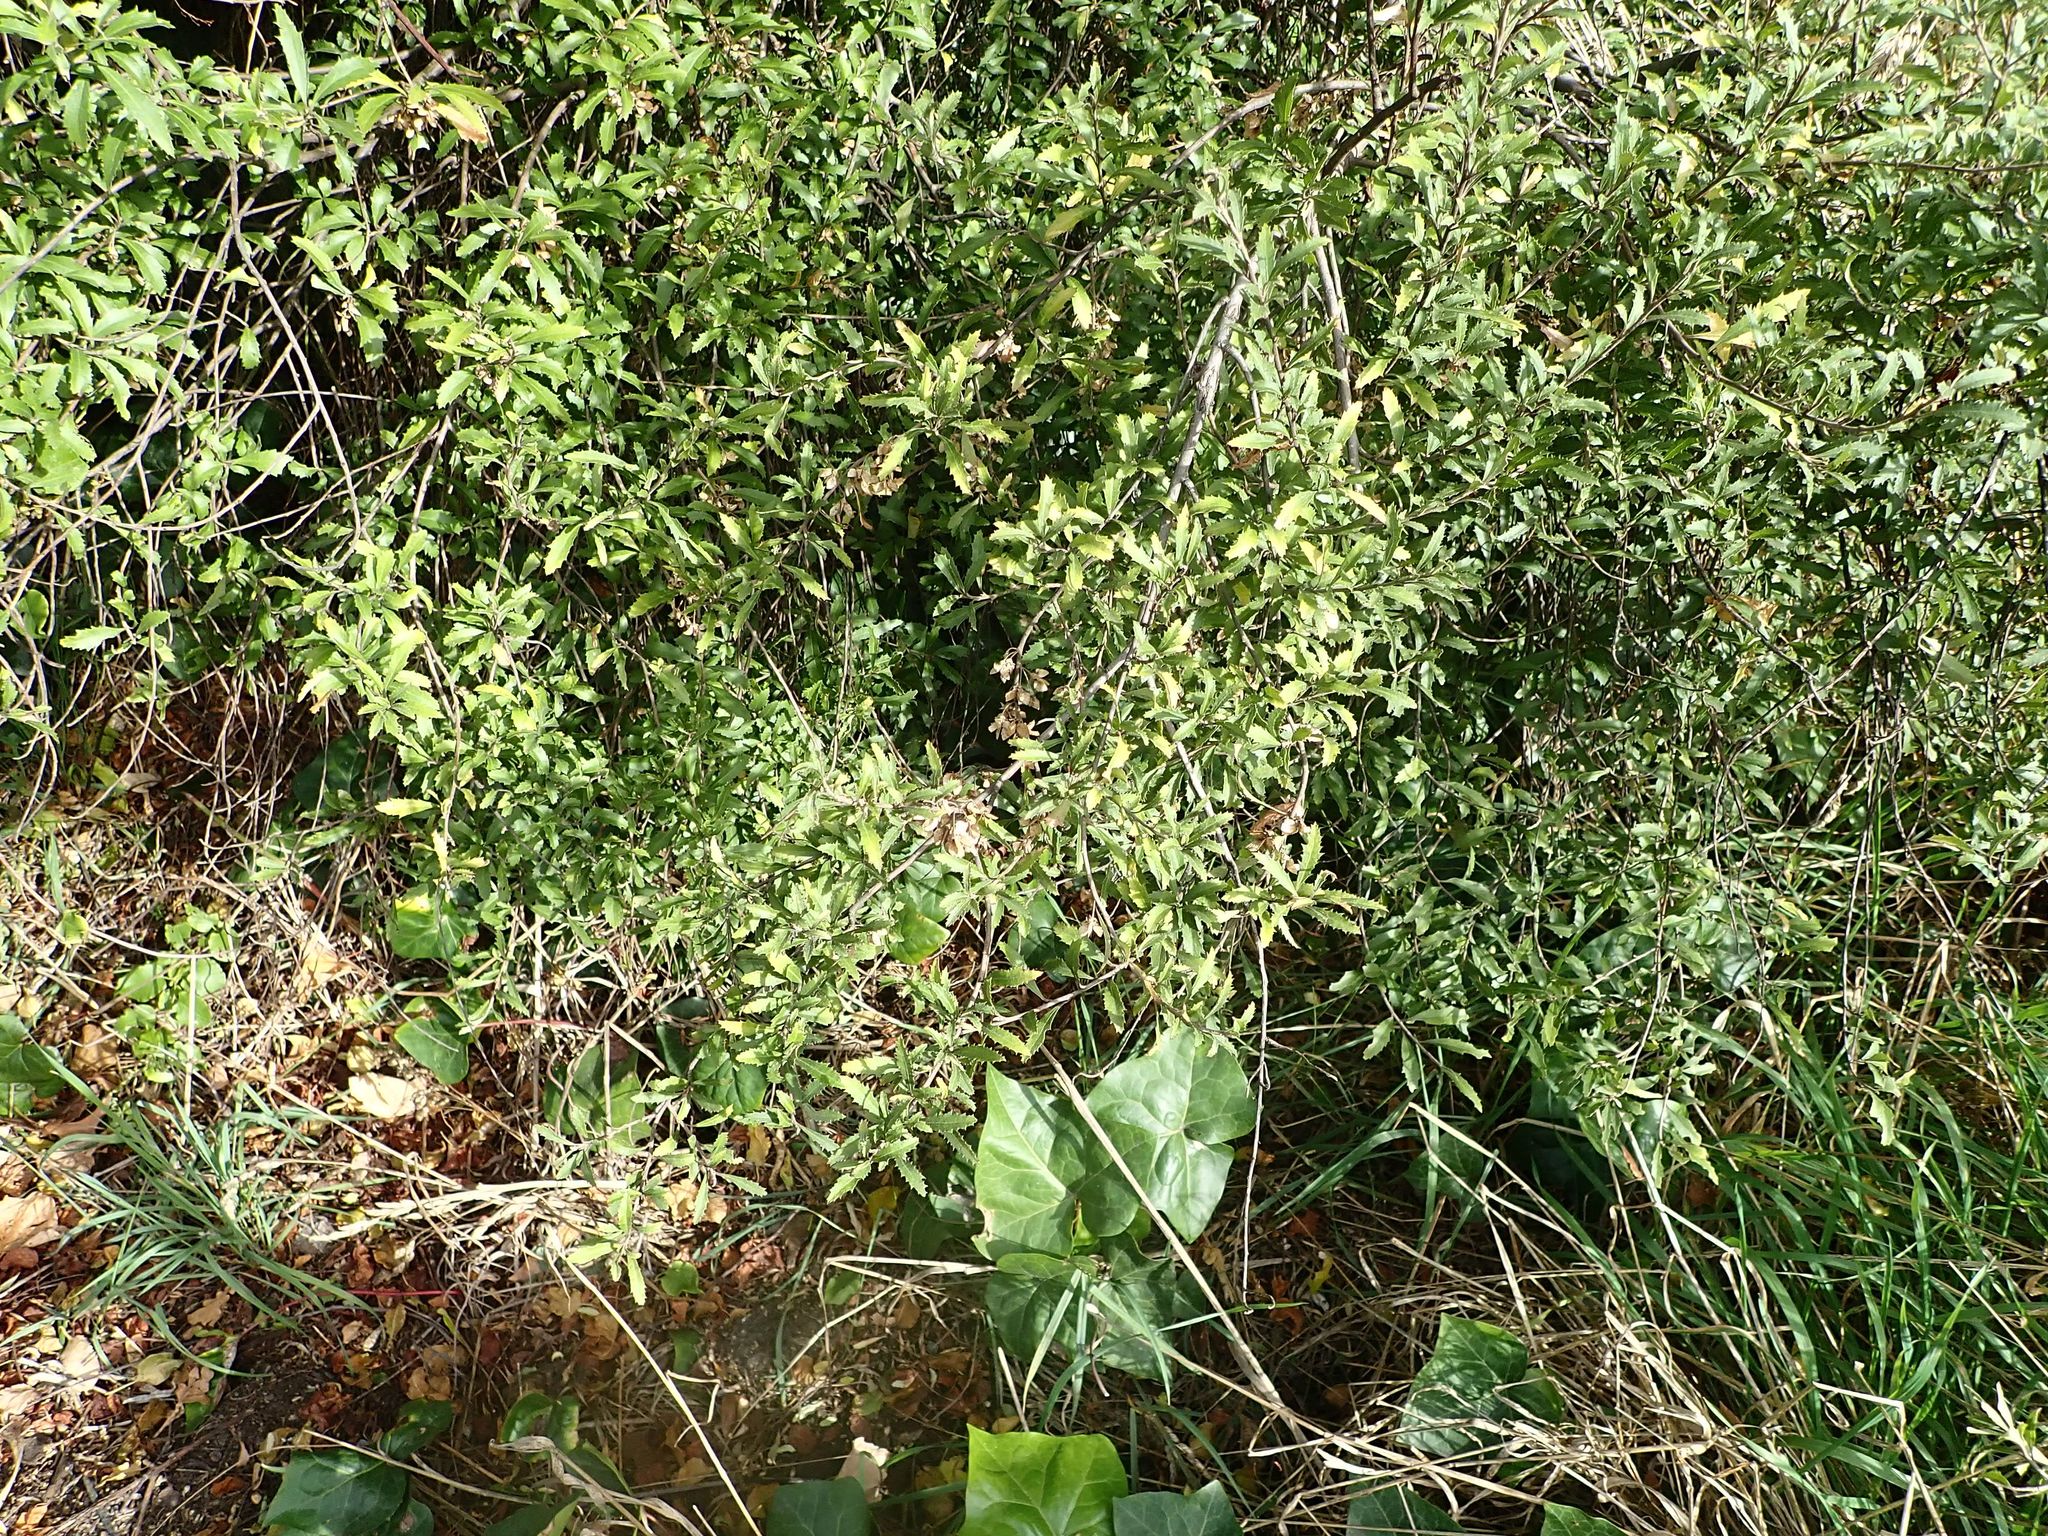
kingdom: Plantae
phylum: Tracheophyta
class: Magnoliopsida
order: Malvales
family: Malvaceae
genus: Hoheria
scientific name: Hoheria angustifolia
